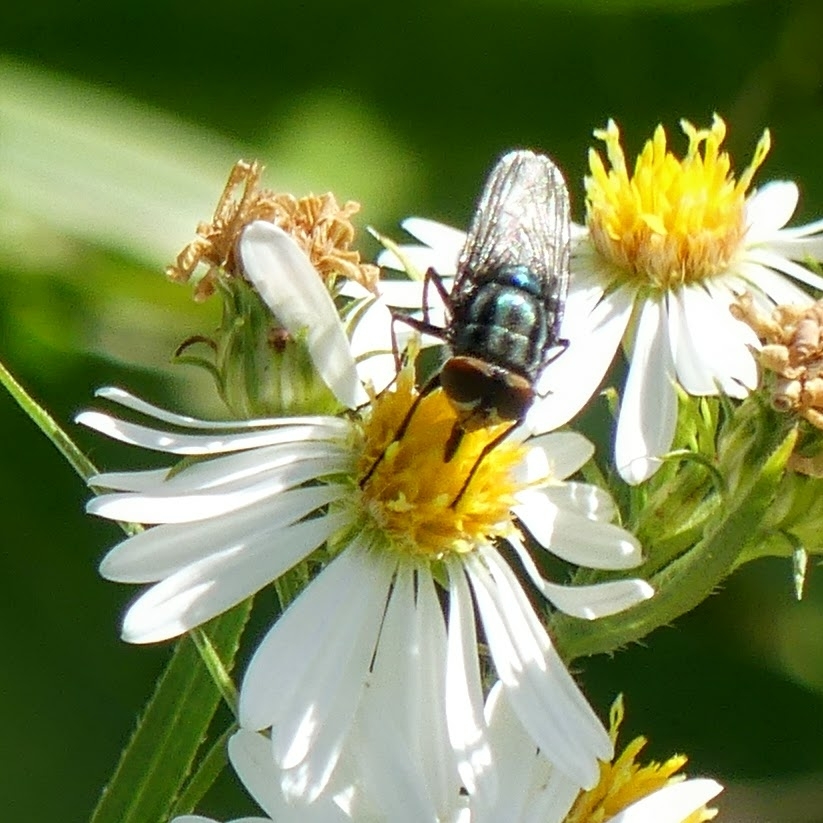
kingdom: Animalia
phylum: Arthropoda
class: Insecta
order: Diptera
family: Calliphoridae
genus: Cochliomyia
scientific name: Cochliomyia macellaria
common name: Secondary screwworm
